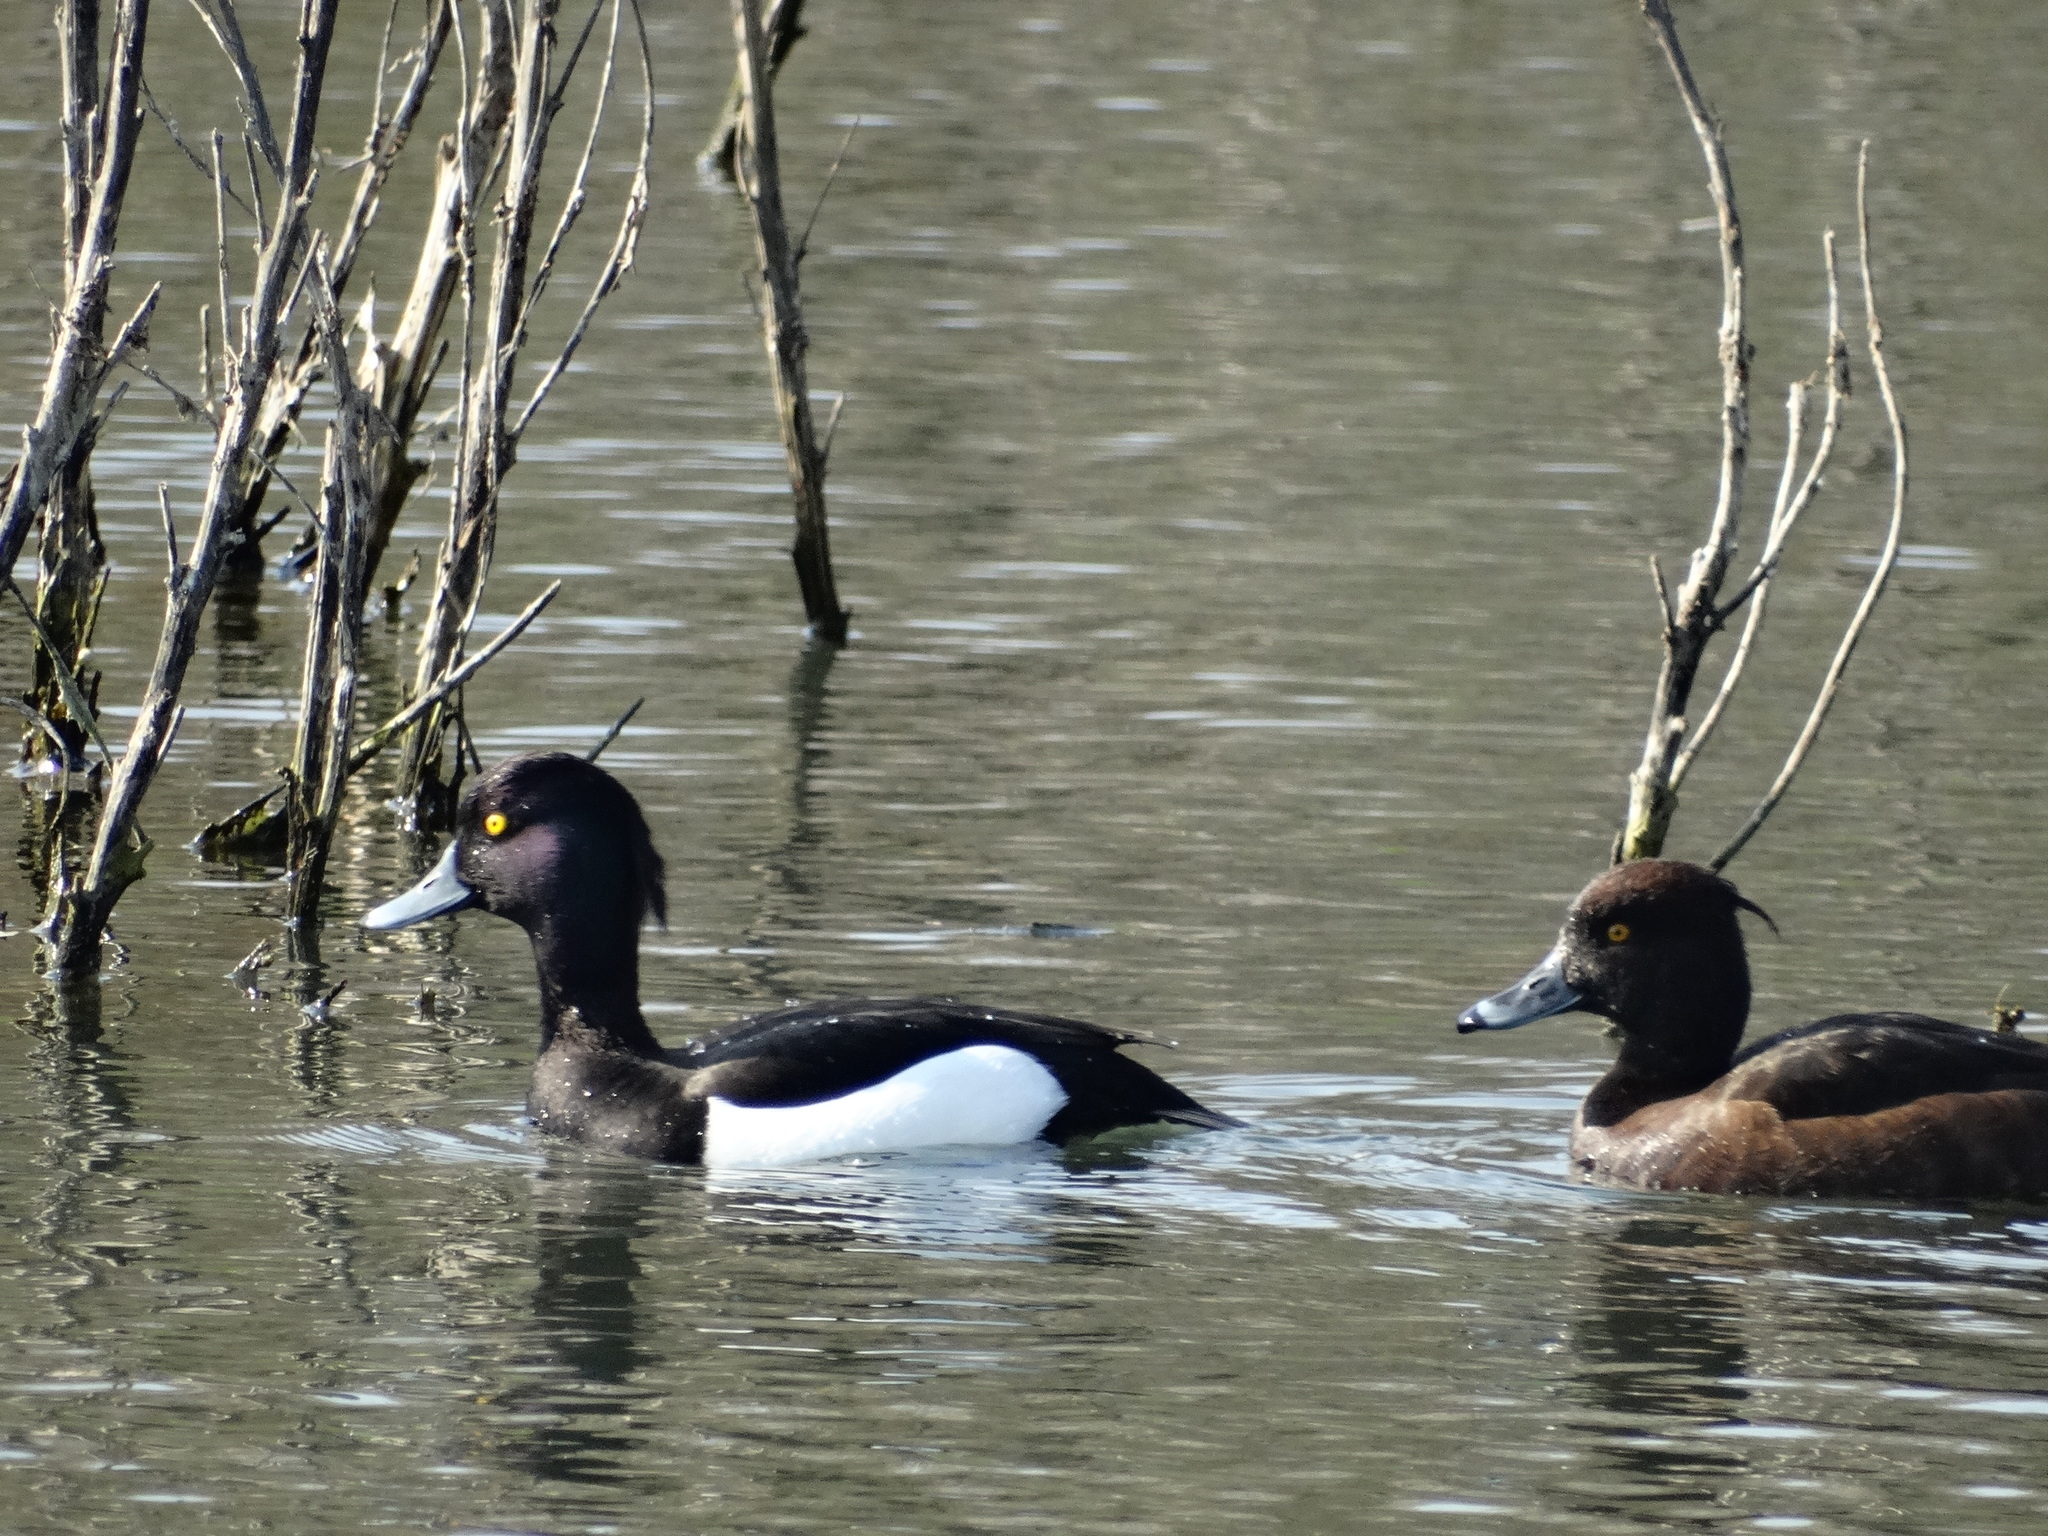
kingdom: Animalia
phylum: Chordata
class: Aves
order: Anseriformes
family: Anatidae
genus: Aythya
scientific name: Aythya fuligula
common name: Tufted duck
